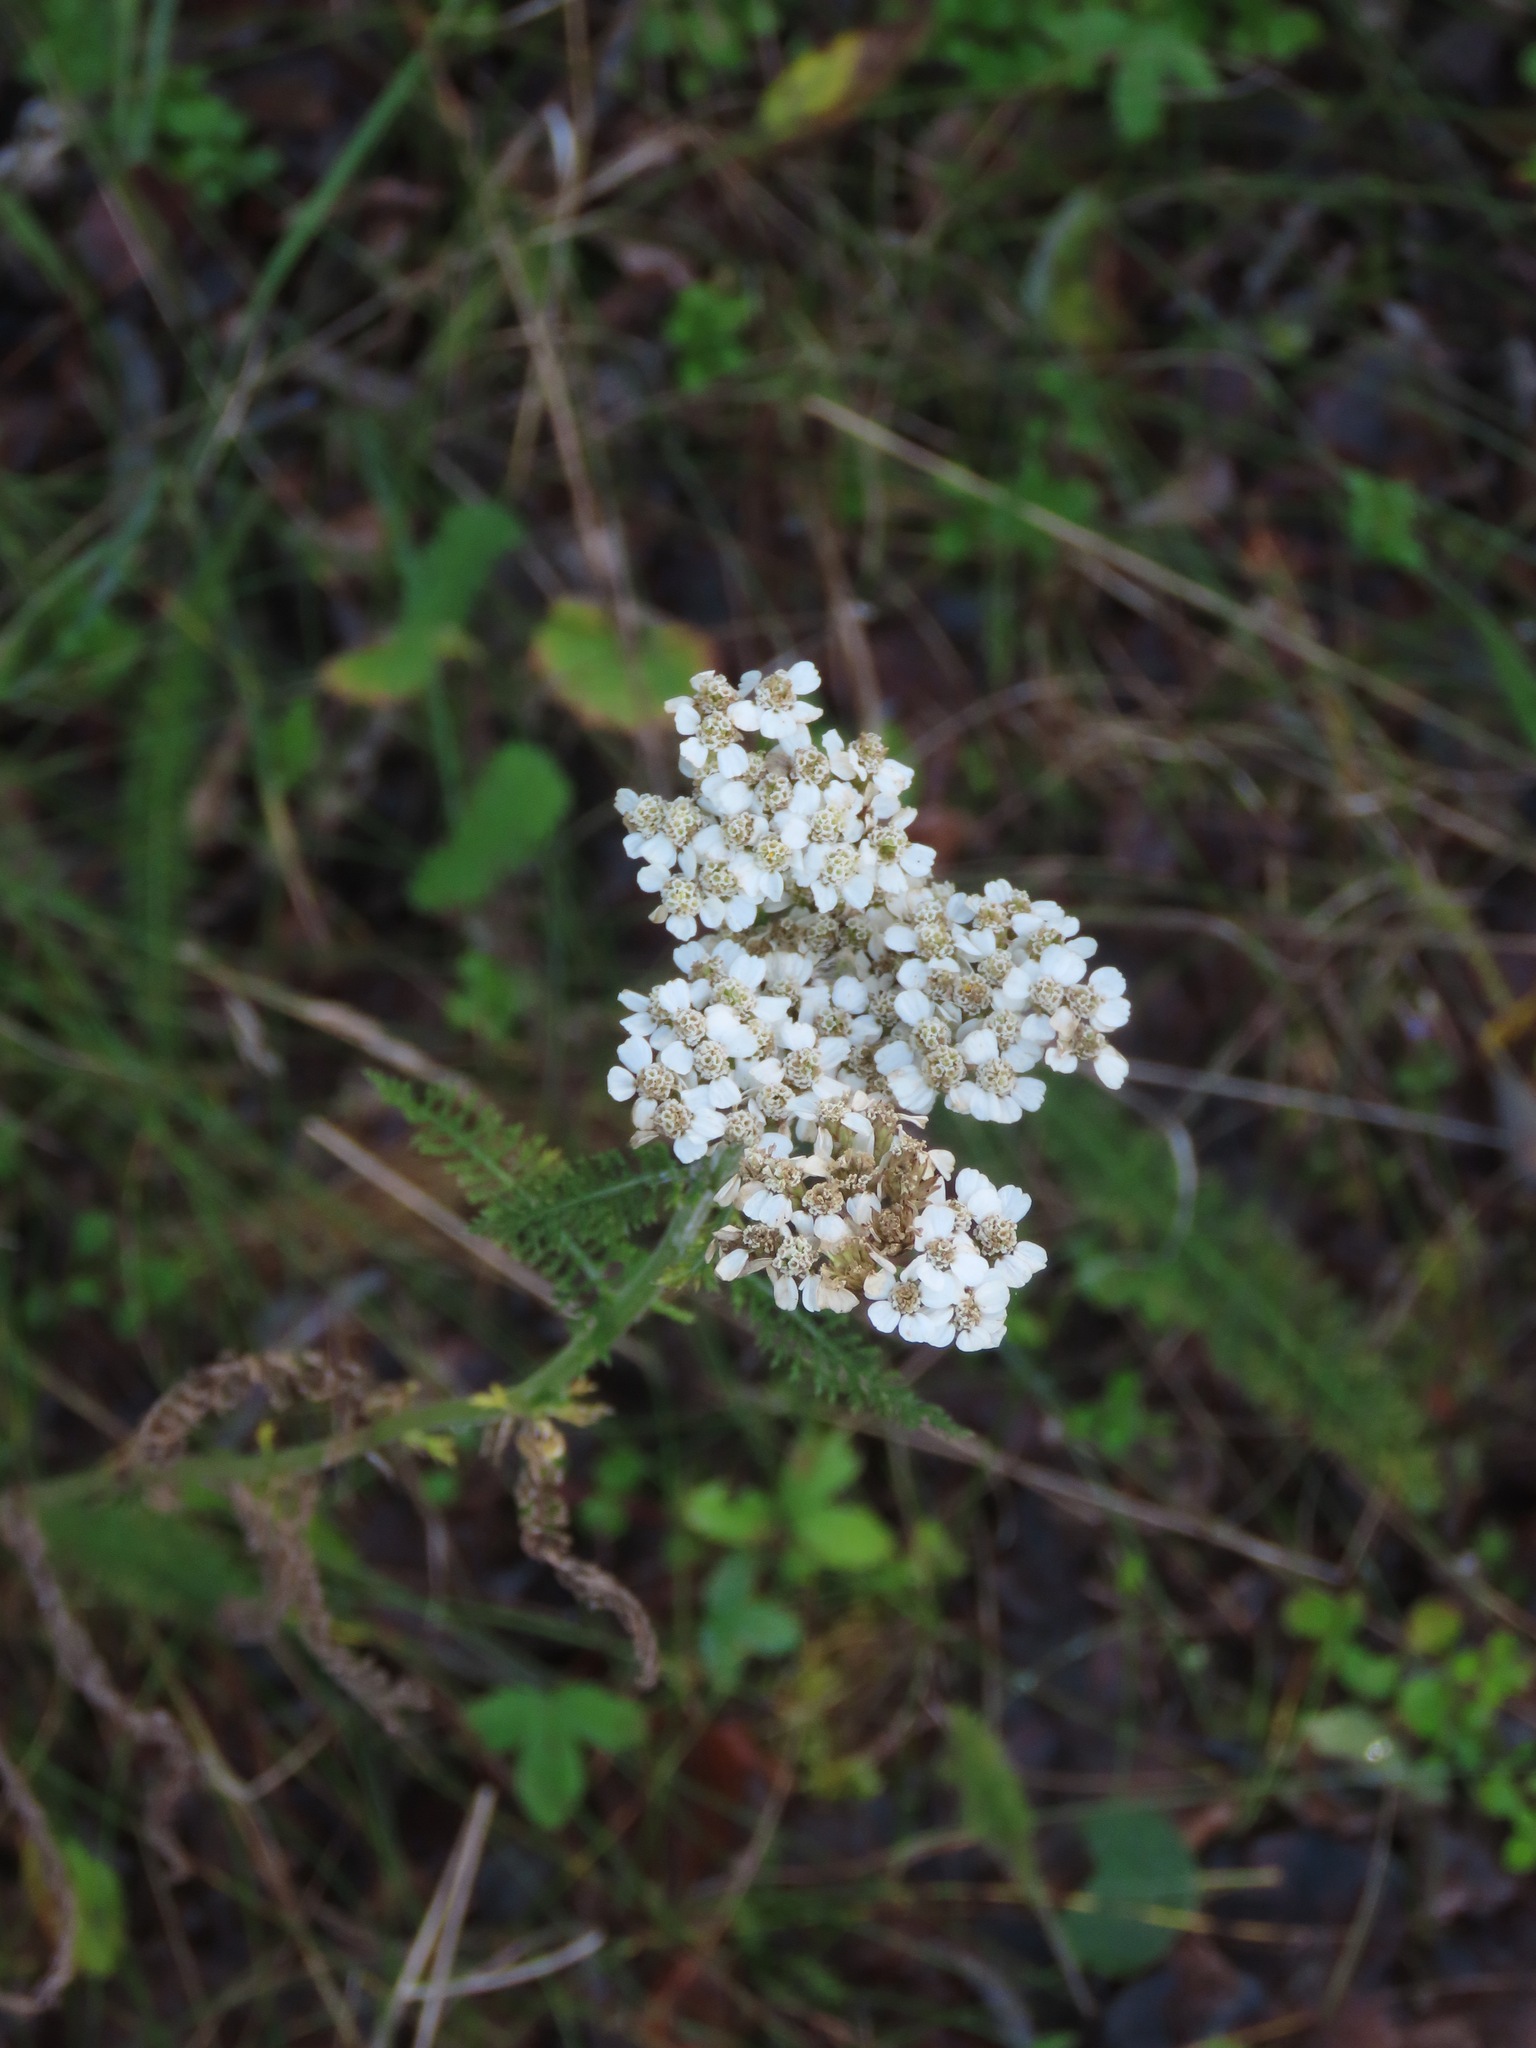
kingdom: Plantae
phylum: Tracheophyta
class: Magnoliopsida
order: Asterales
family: Asteraceae
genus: Achillea
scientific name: Achillea millefolium
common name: Yarrow
